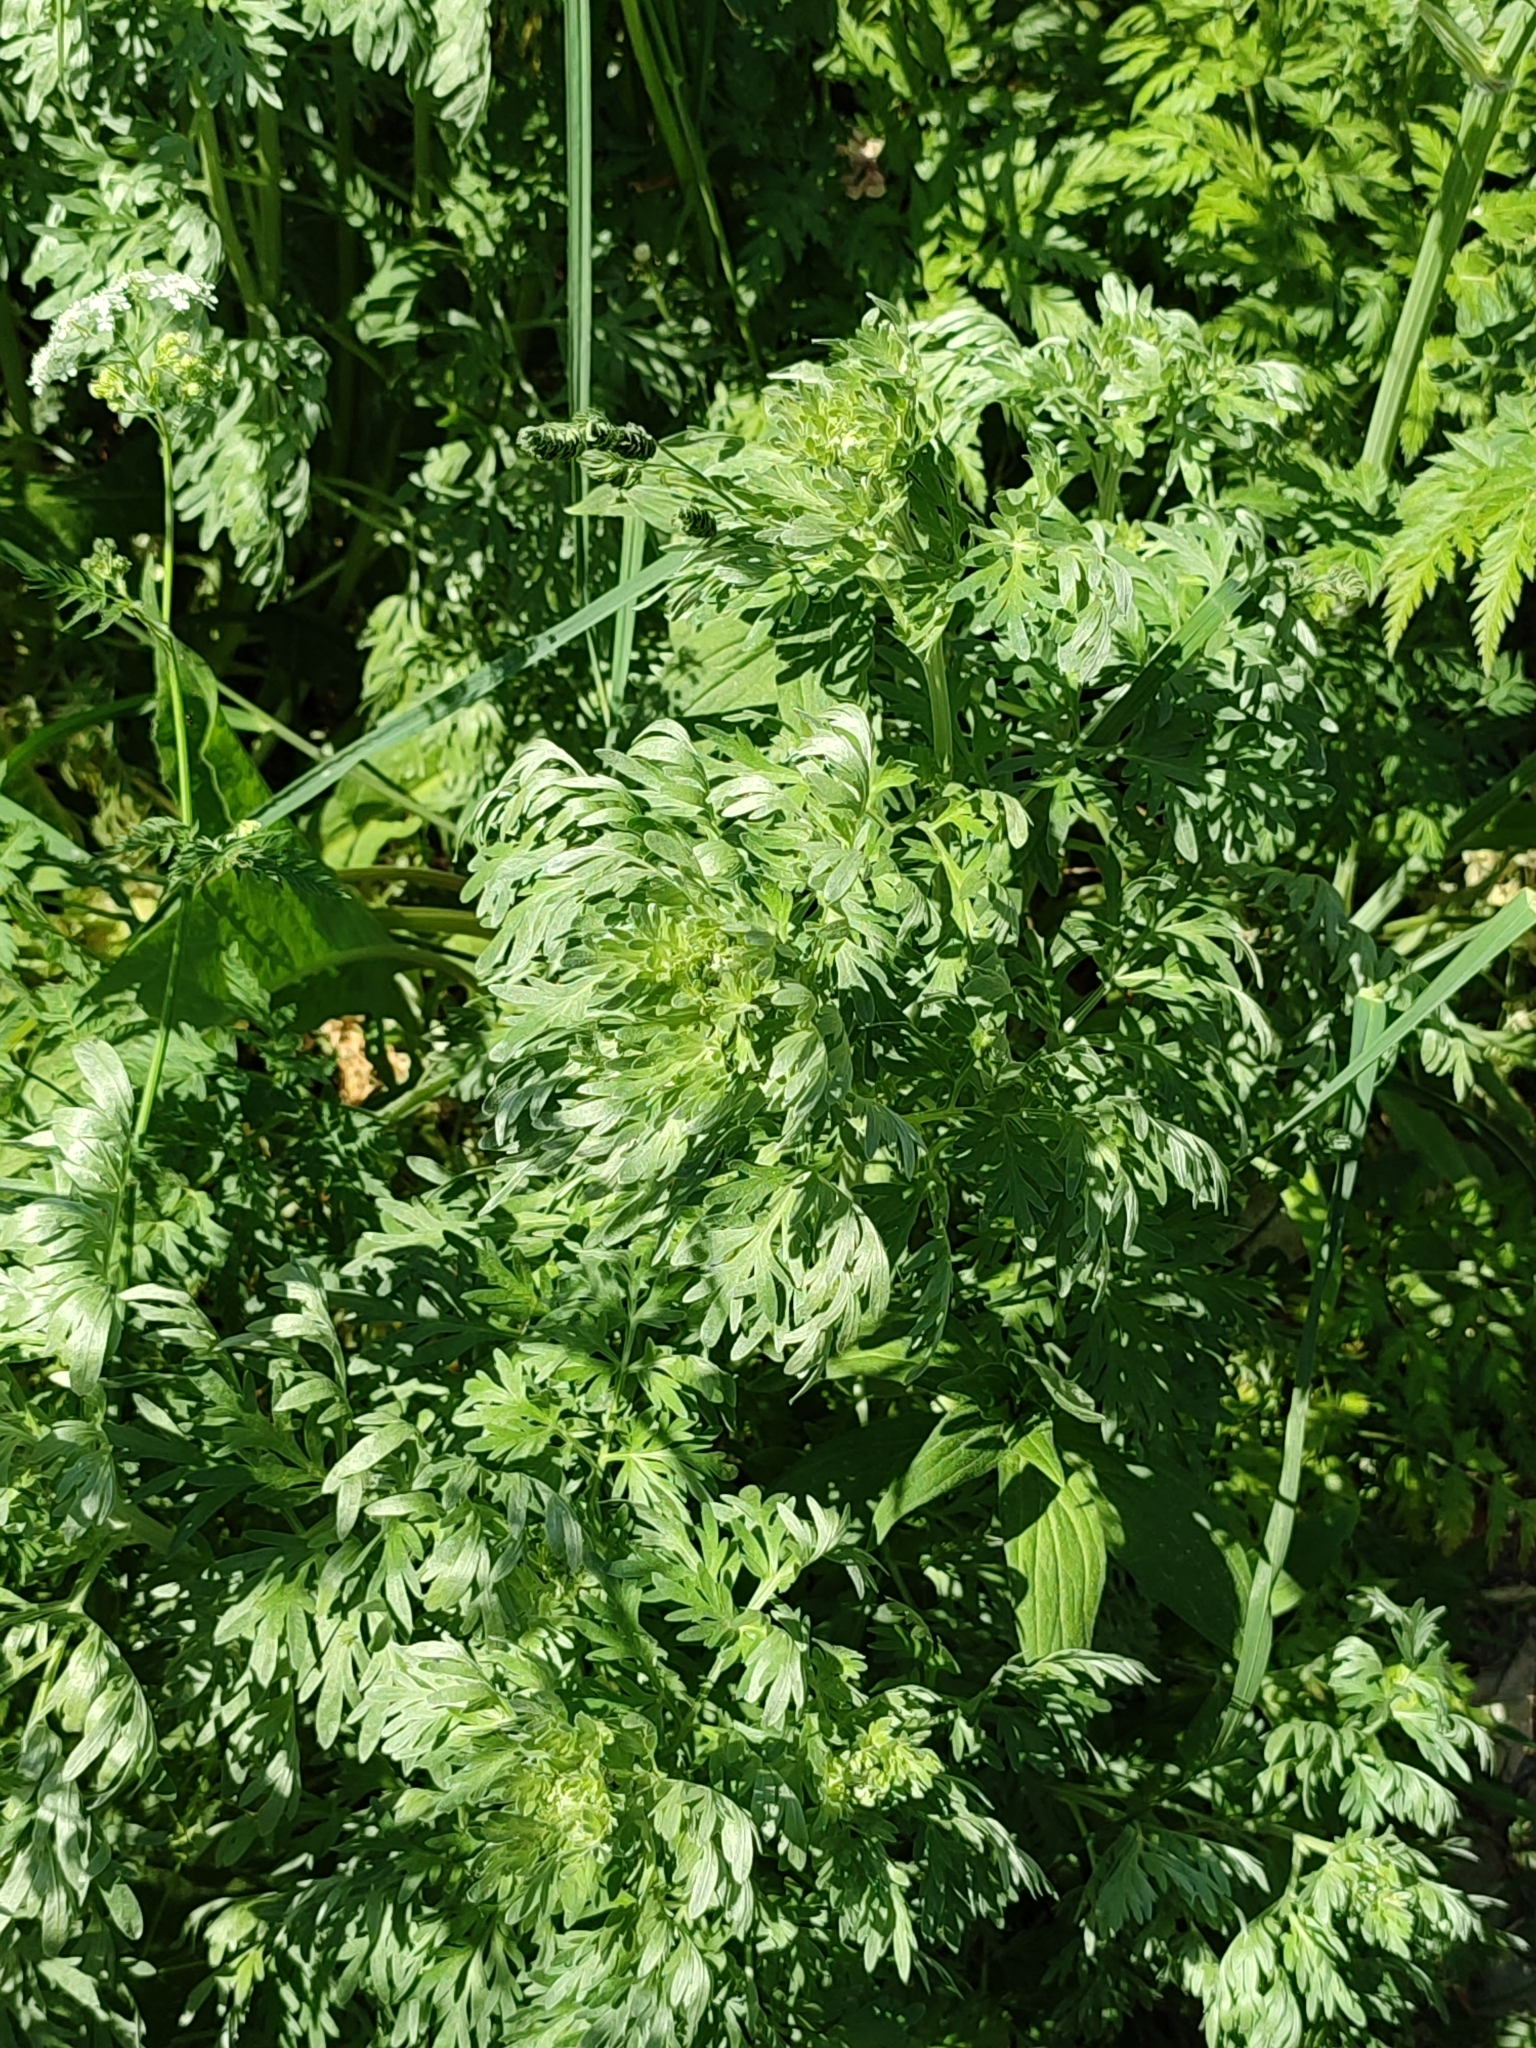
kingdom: Plantae
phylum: Tracheophyta
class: Magnoliopsida
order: Asterales
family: Asteraceae
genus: Artemisia
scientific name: Artemisia absinthium
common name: Wormwood
